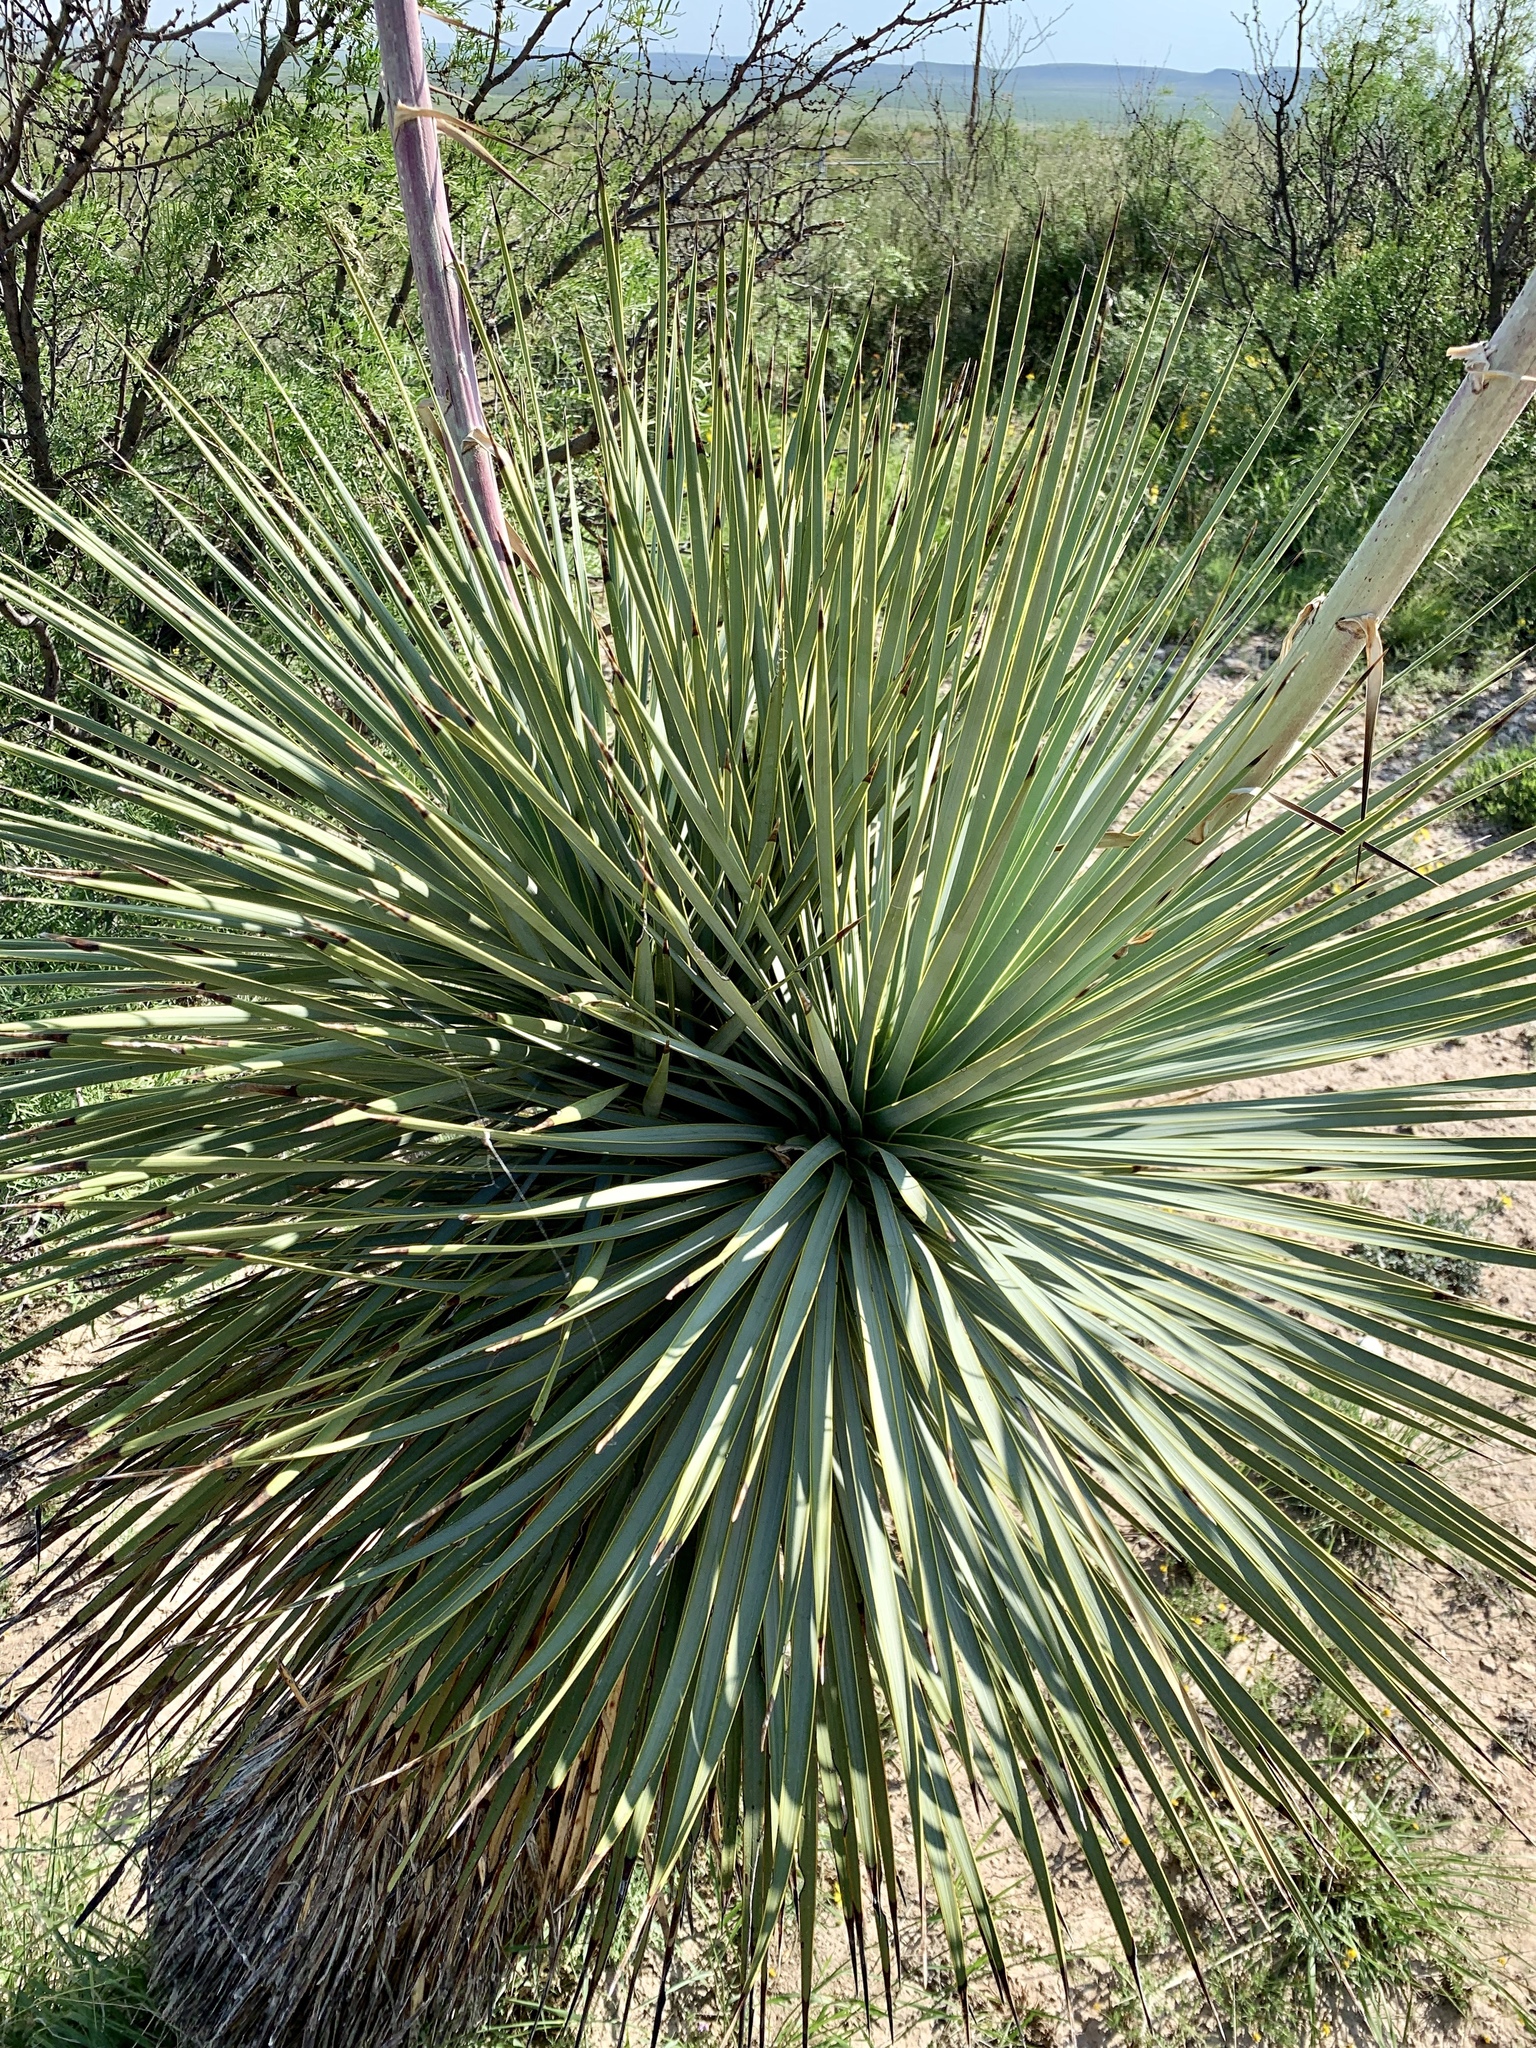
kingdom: Plantae
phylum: Tracheophyta
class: Liliopsida
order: Asparagales
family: Asparagaceae
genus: Yucca
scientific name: Yucca thompsoniana
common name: Trans-pecos yucca
